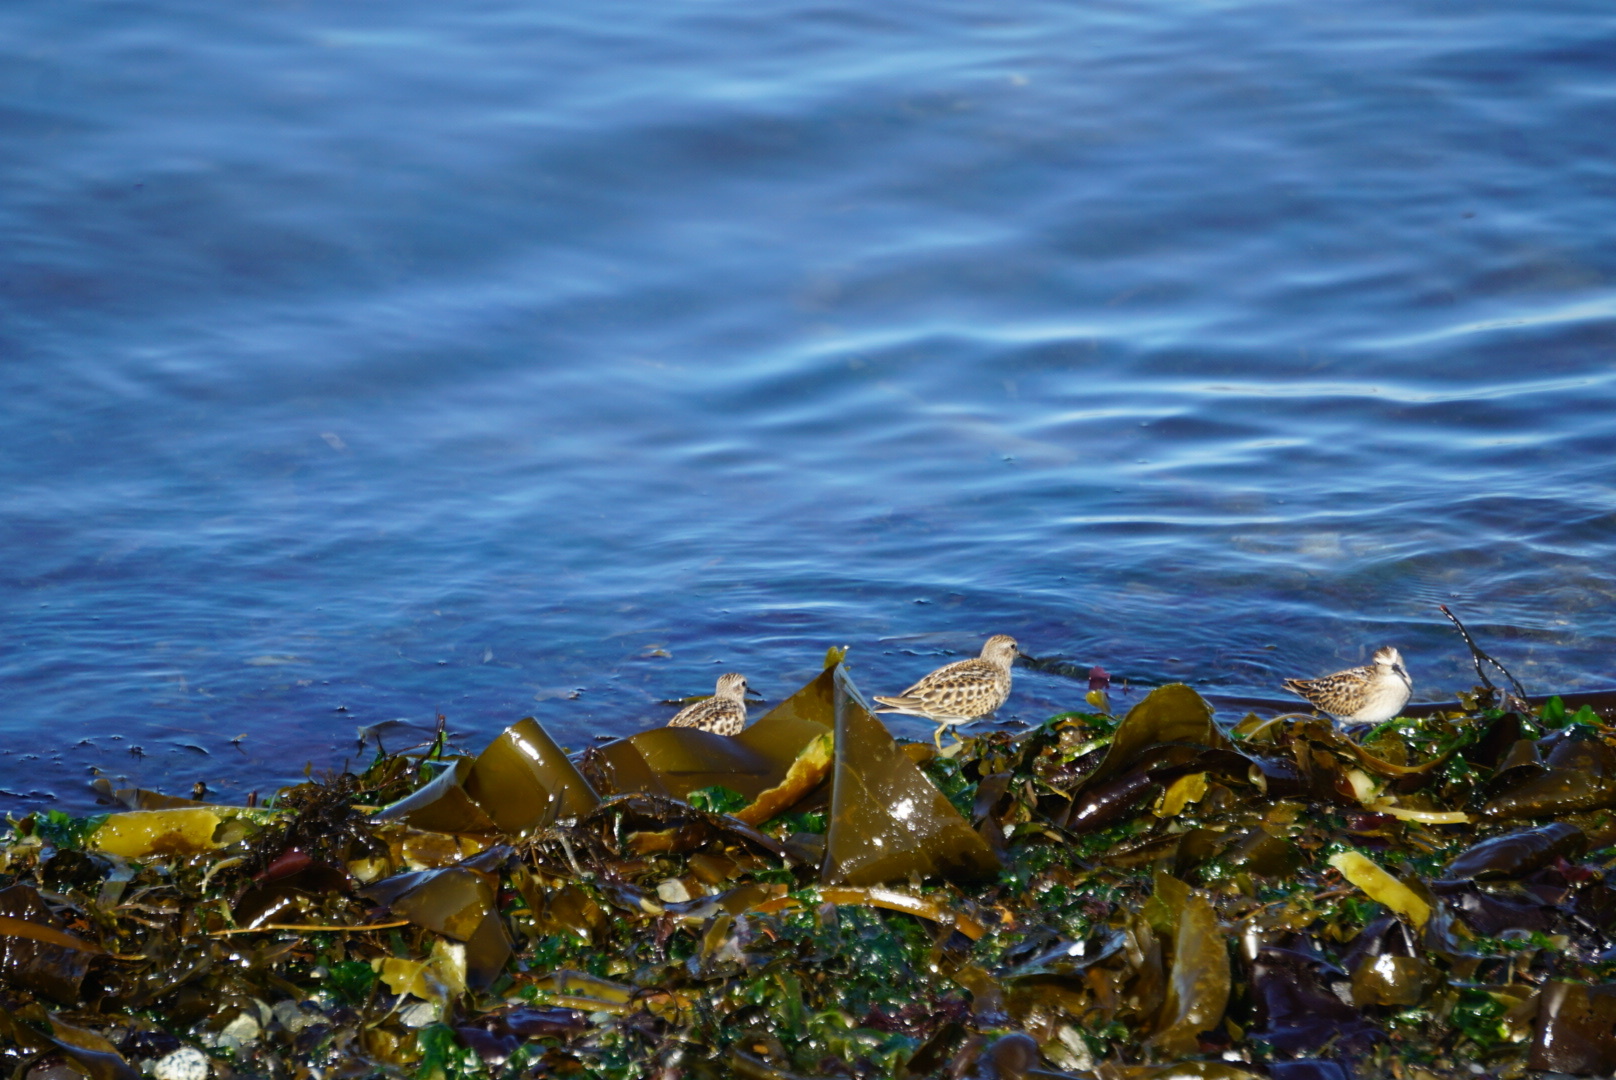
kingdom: Animalia
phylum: Chordata
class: Aves
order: Charadriiformes
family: Scolopacidae
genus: Calidris
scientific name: Calidris minutilla
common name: Least sandpiper
